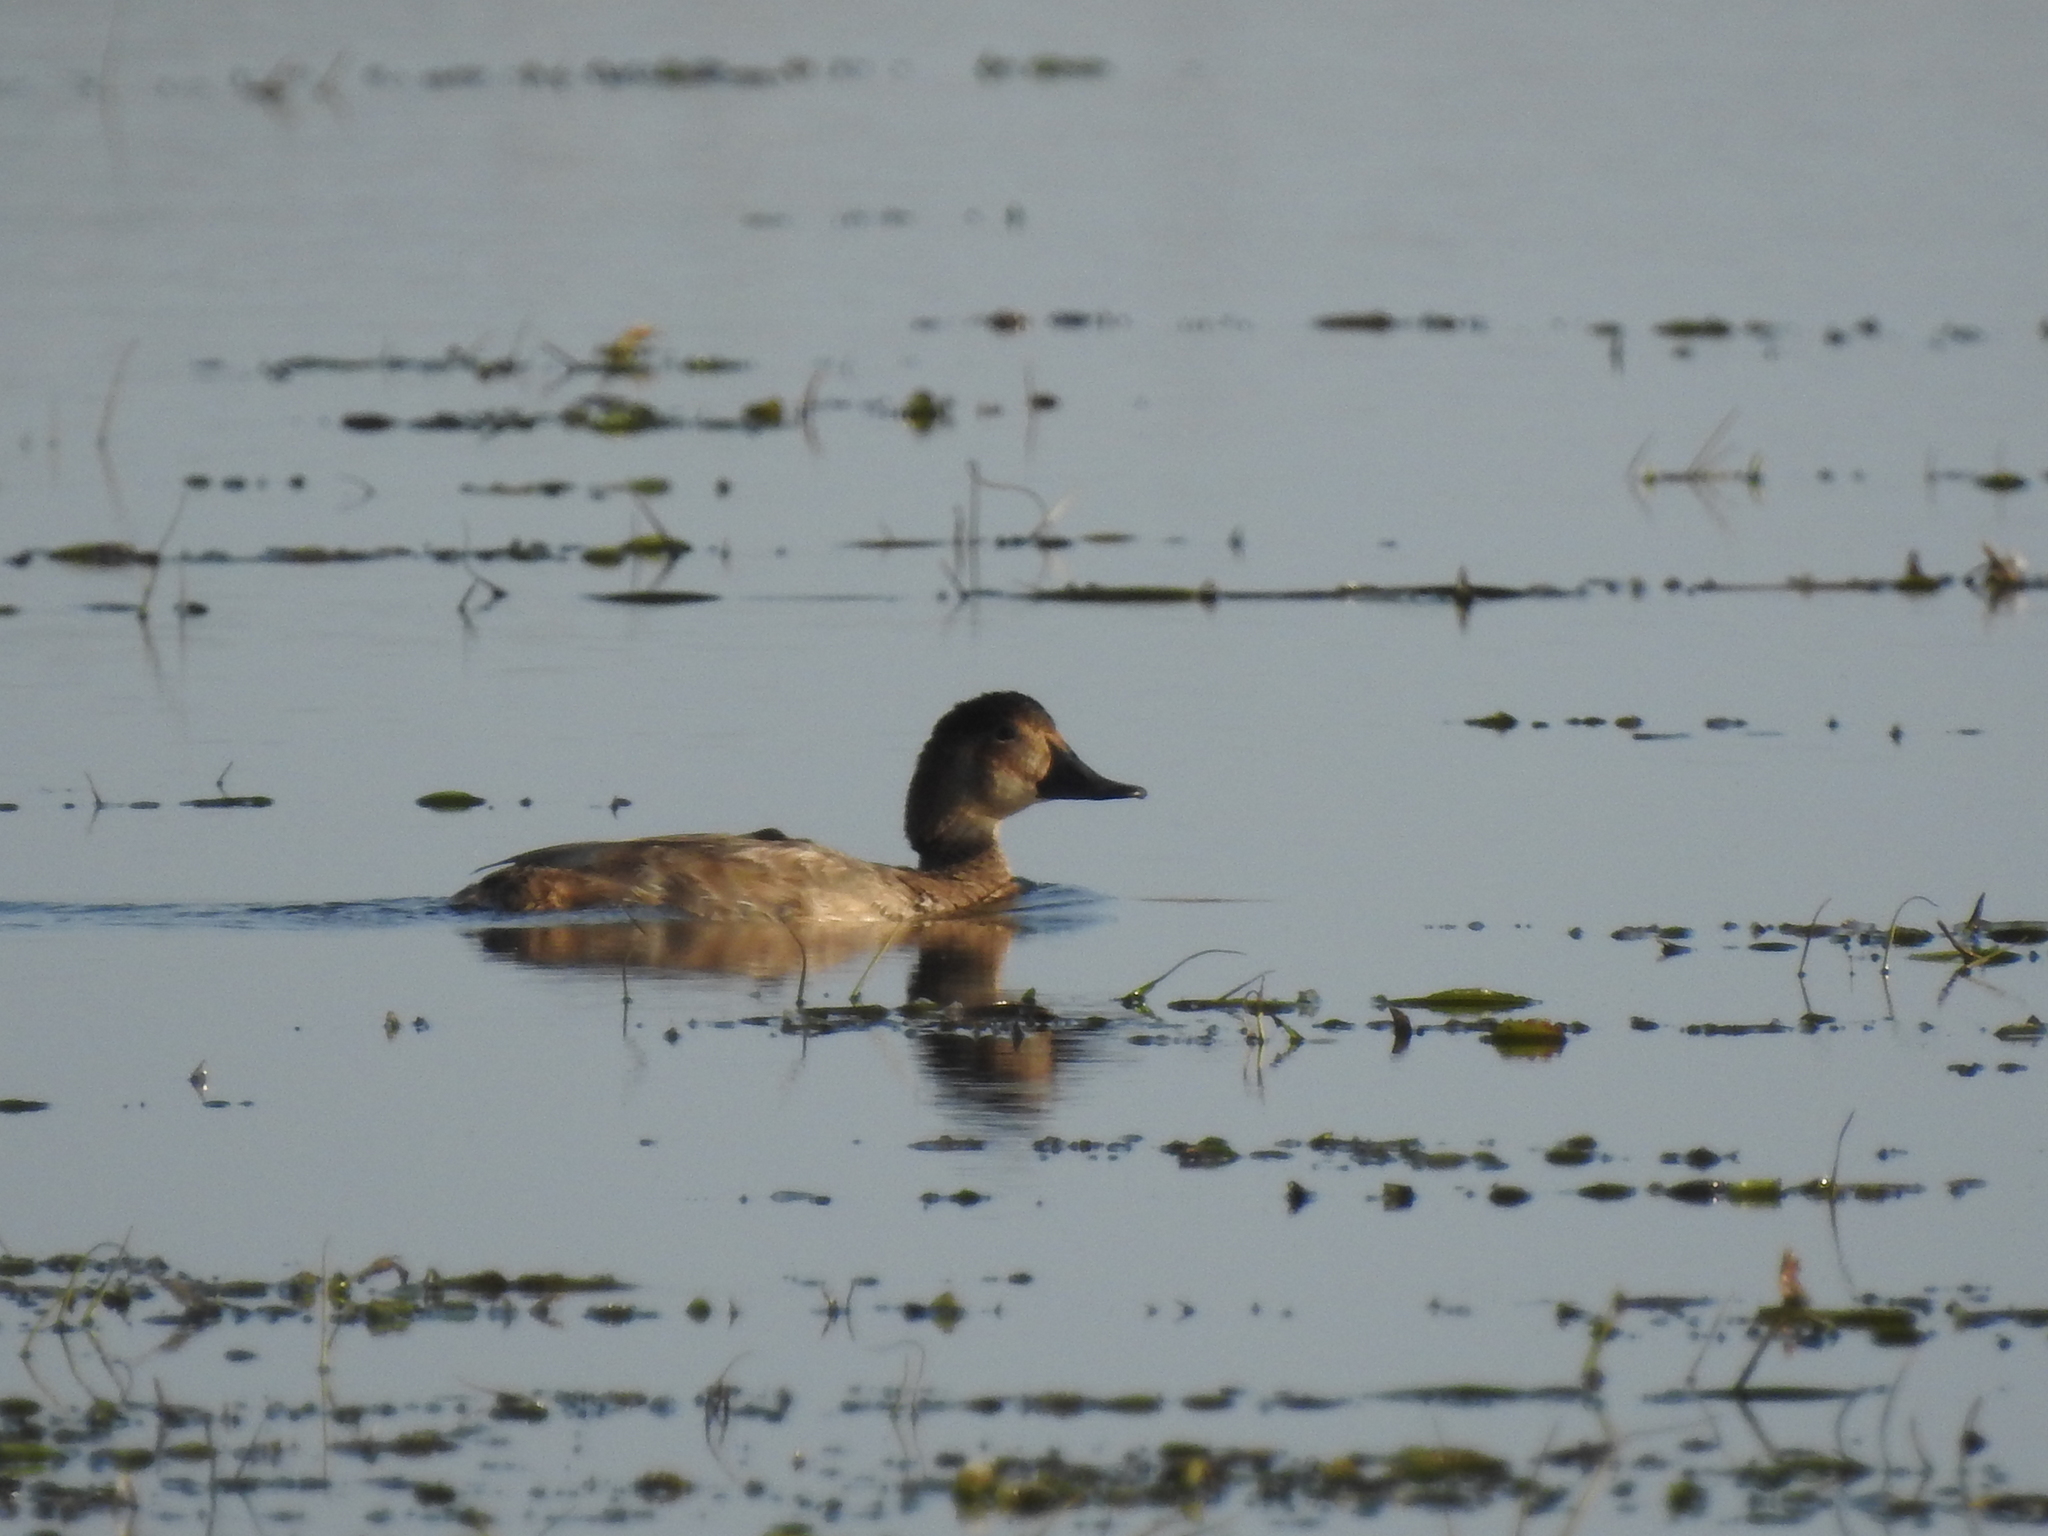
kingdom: Animalia
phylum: Chordata
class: Aves
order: Anseriformes
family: Anatidae
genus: Aythya
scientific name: Aythya ferina
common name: Common pochard
